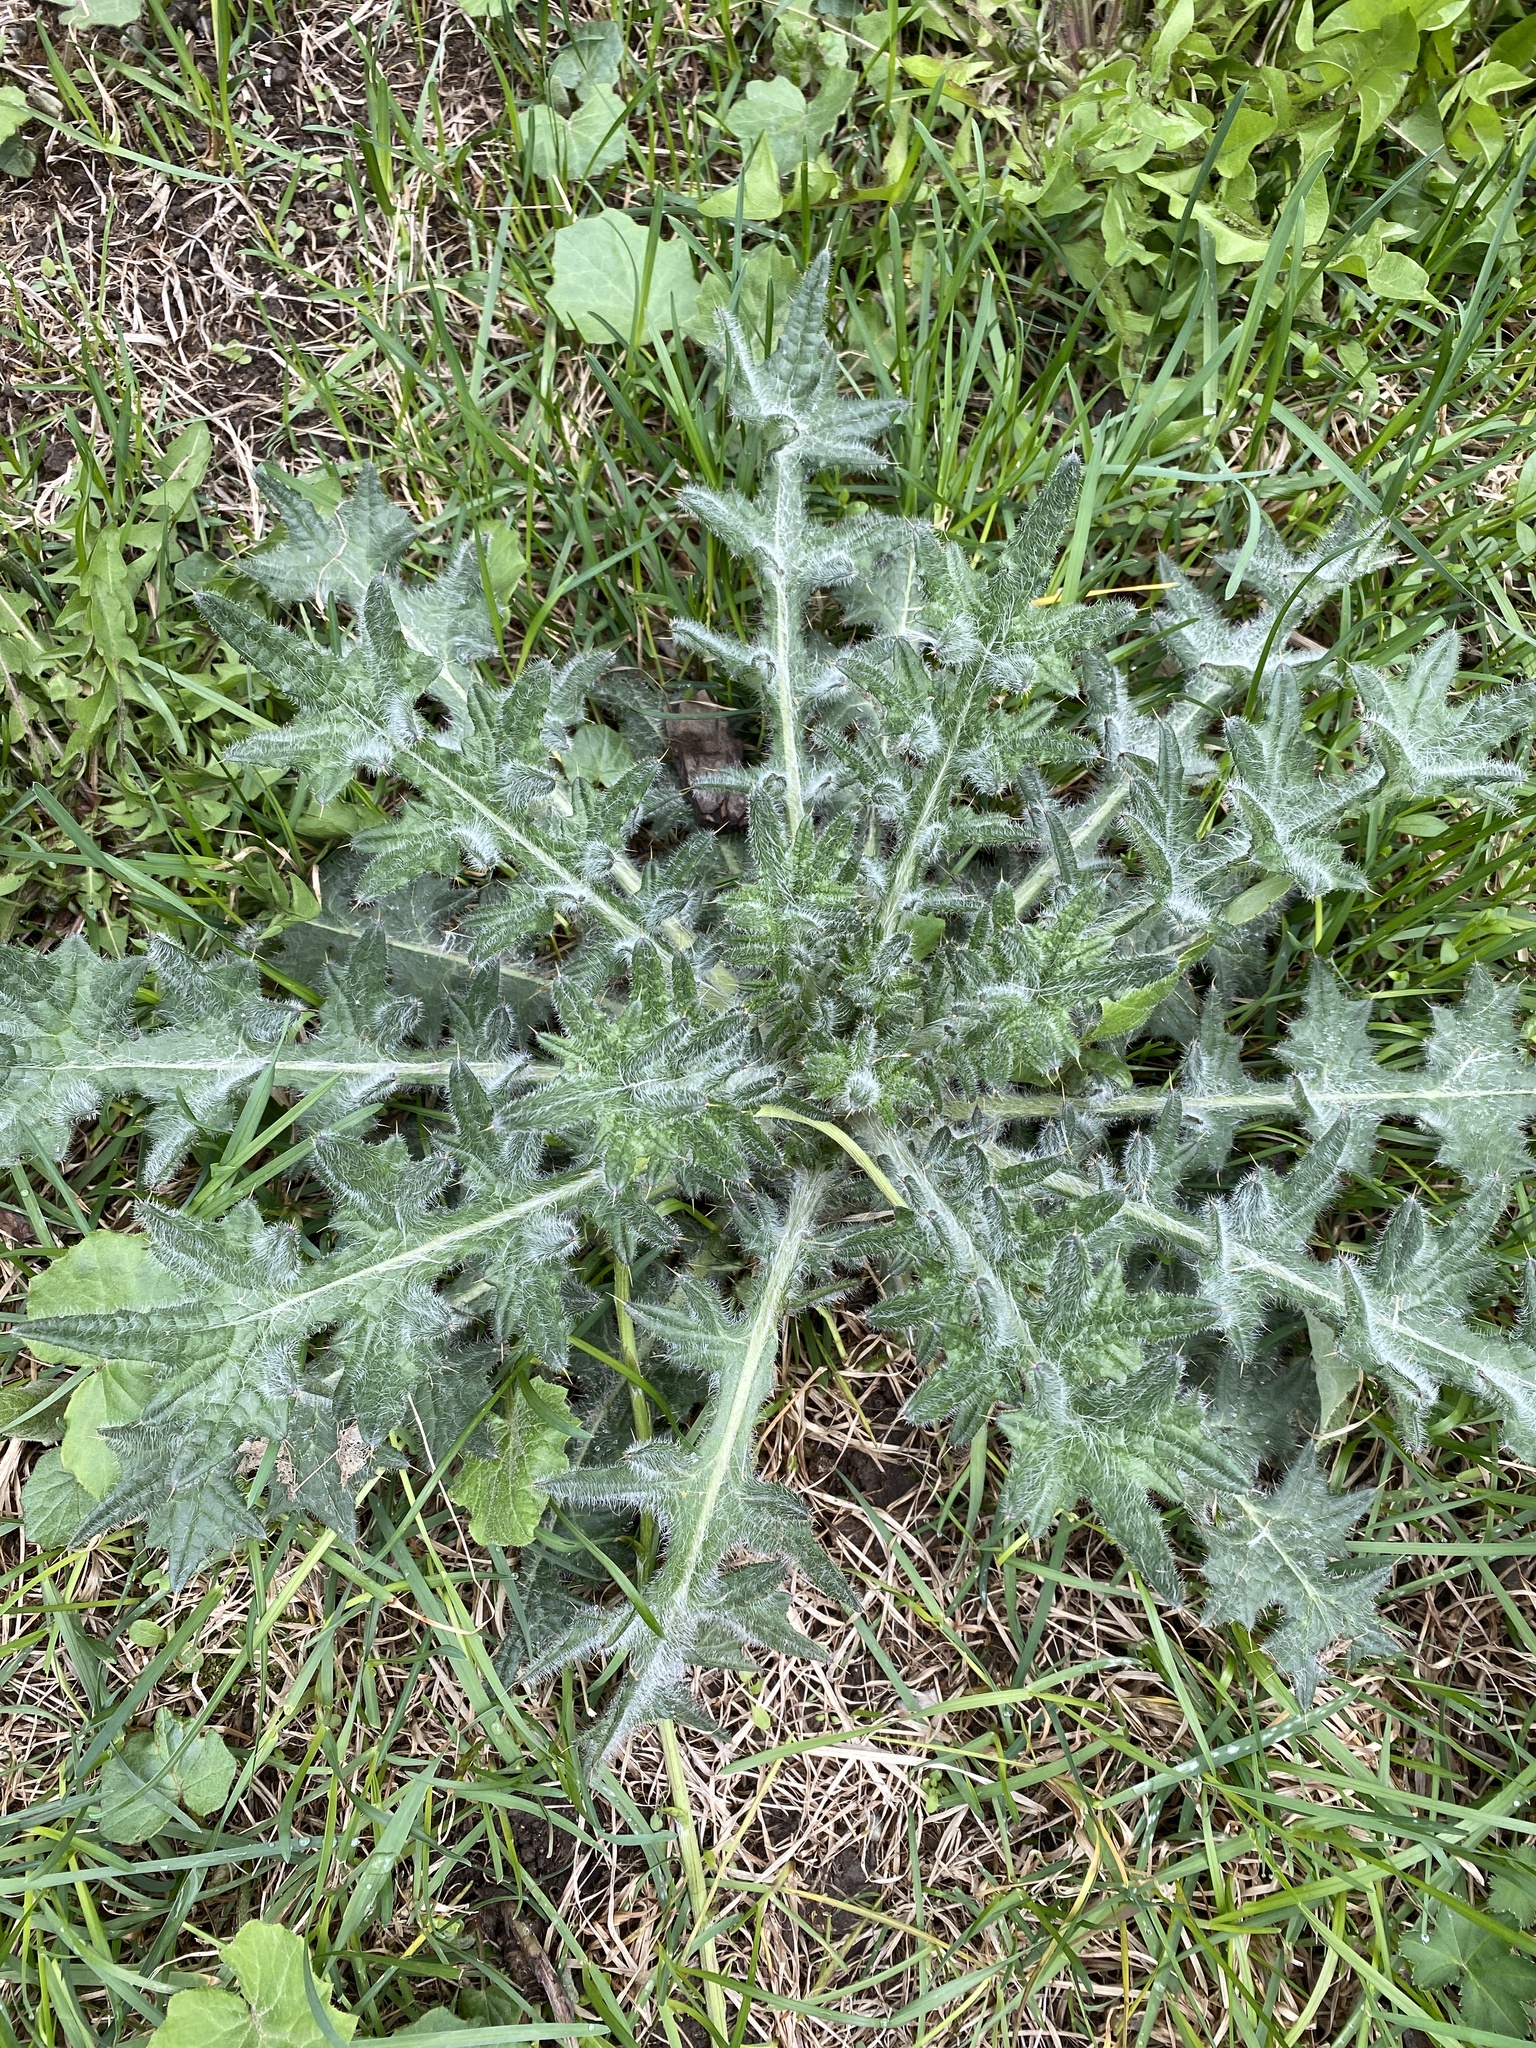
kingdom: Plantae
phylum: Tracheophyta
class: Magnoliopsida
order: Asterales
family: Asteraceae
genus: Cirsium
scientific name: Cirsium vulgare
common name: Bull thistle
